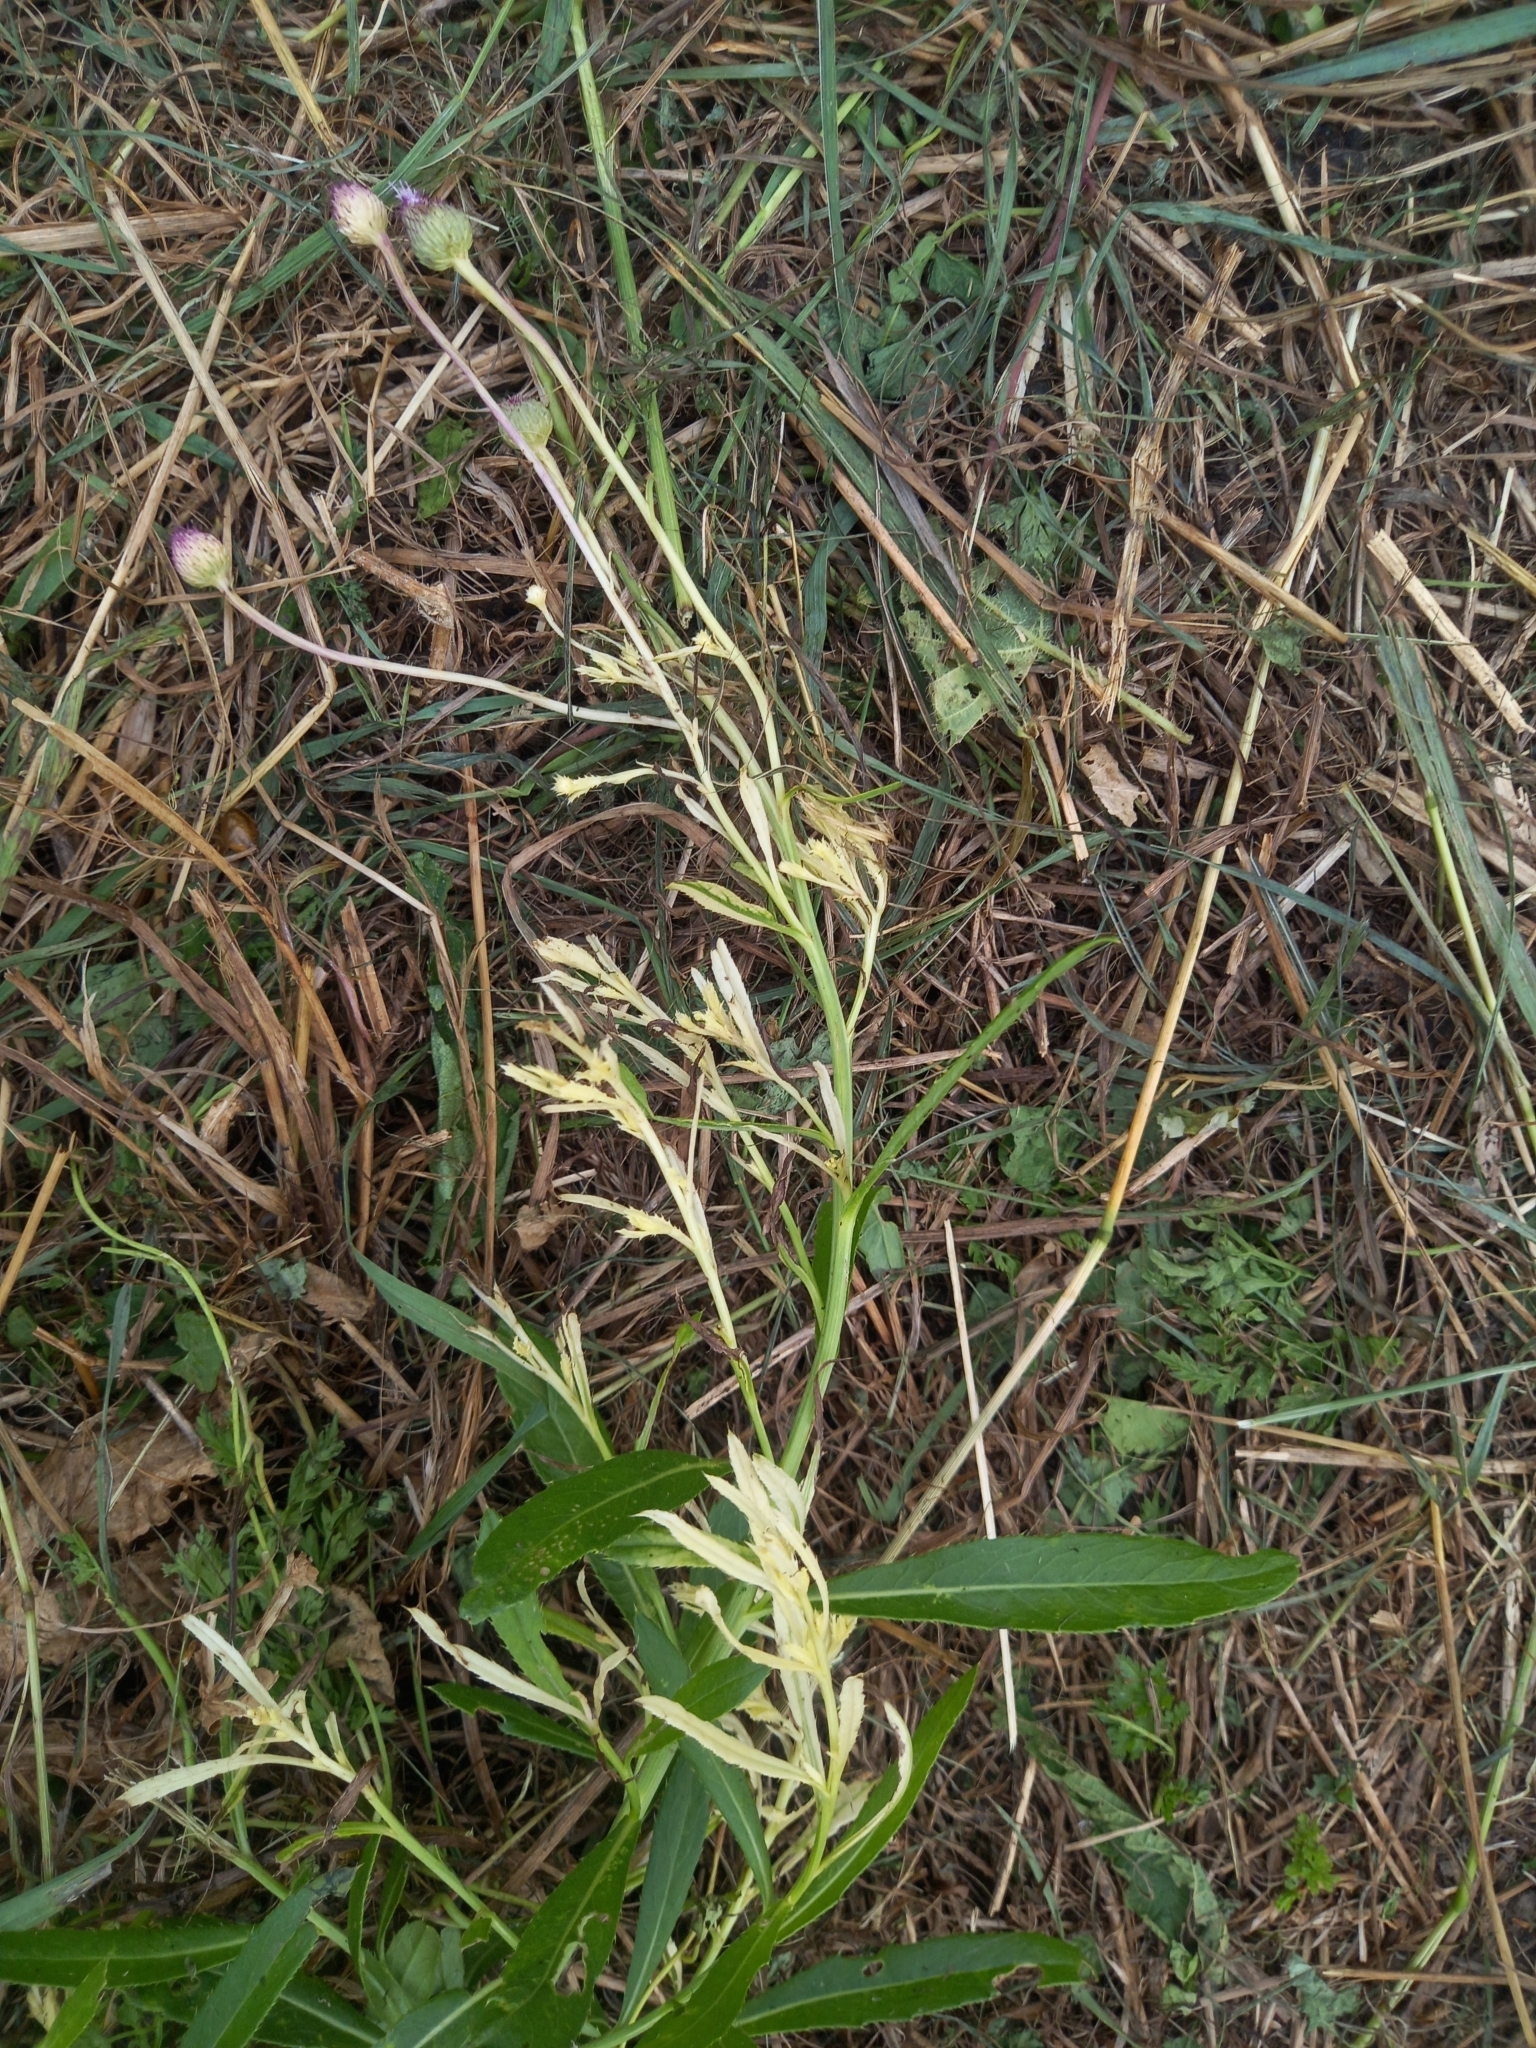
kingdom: Bacteria
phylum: Proteobacteria
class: Gammaproteobacteria
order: Pseudomonadales
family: Pseudomonadaceae
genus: Pseudomonas
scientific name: Pseudomonas syringae
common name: Bacterial speck
